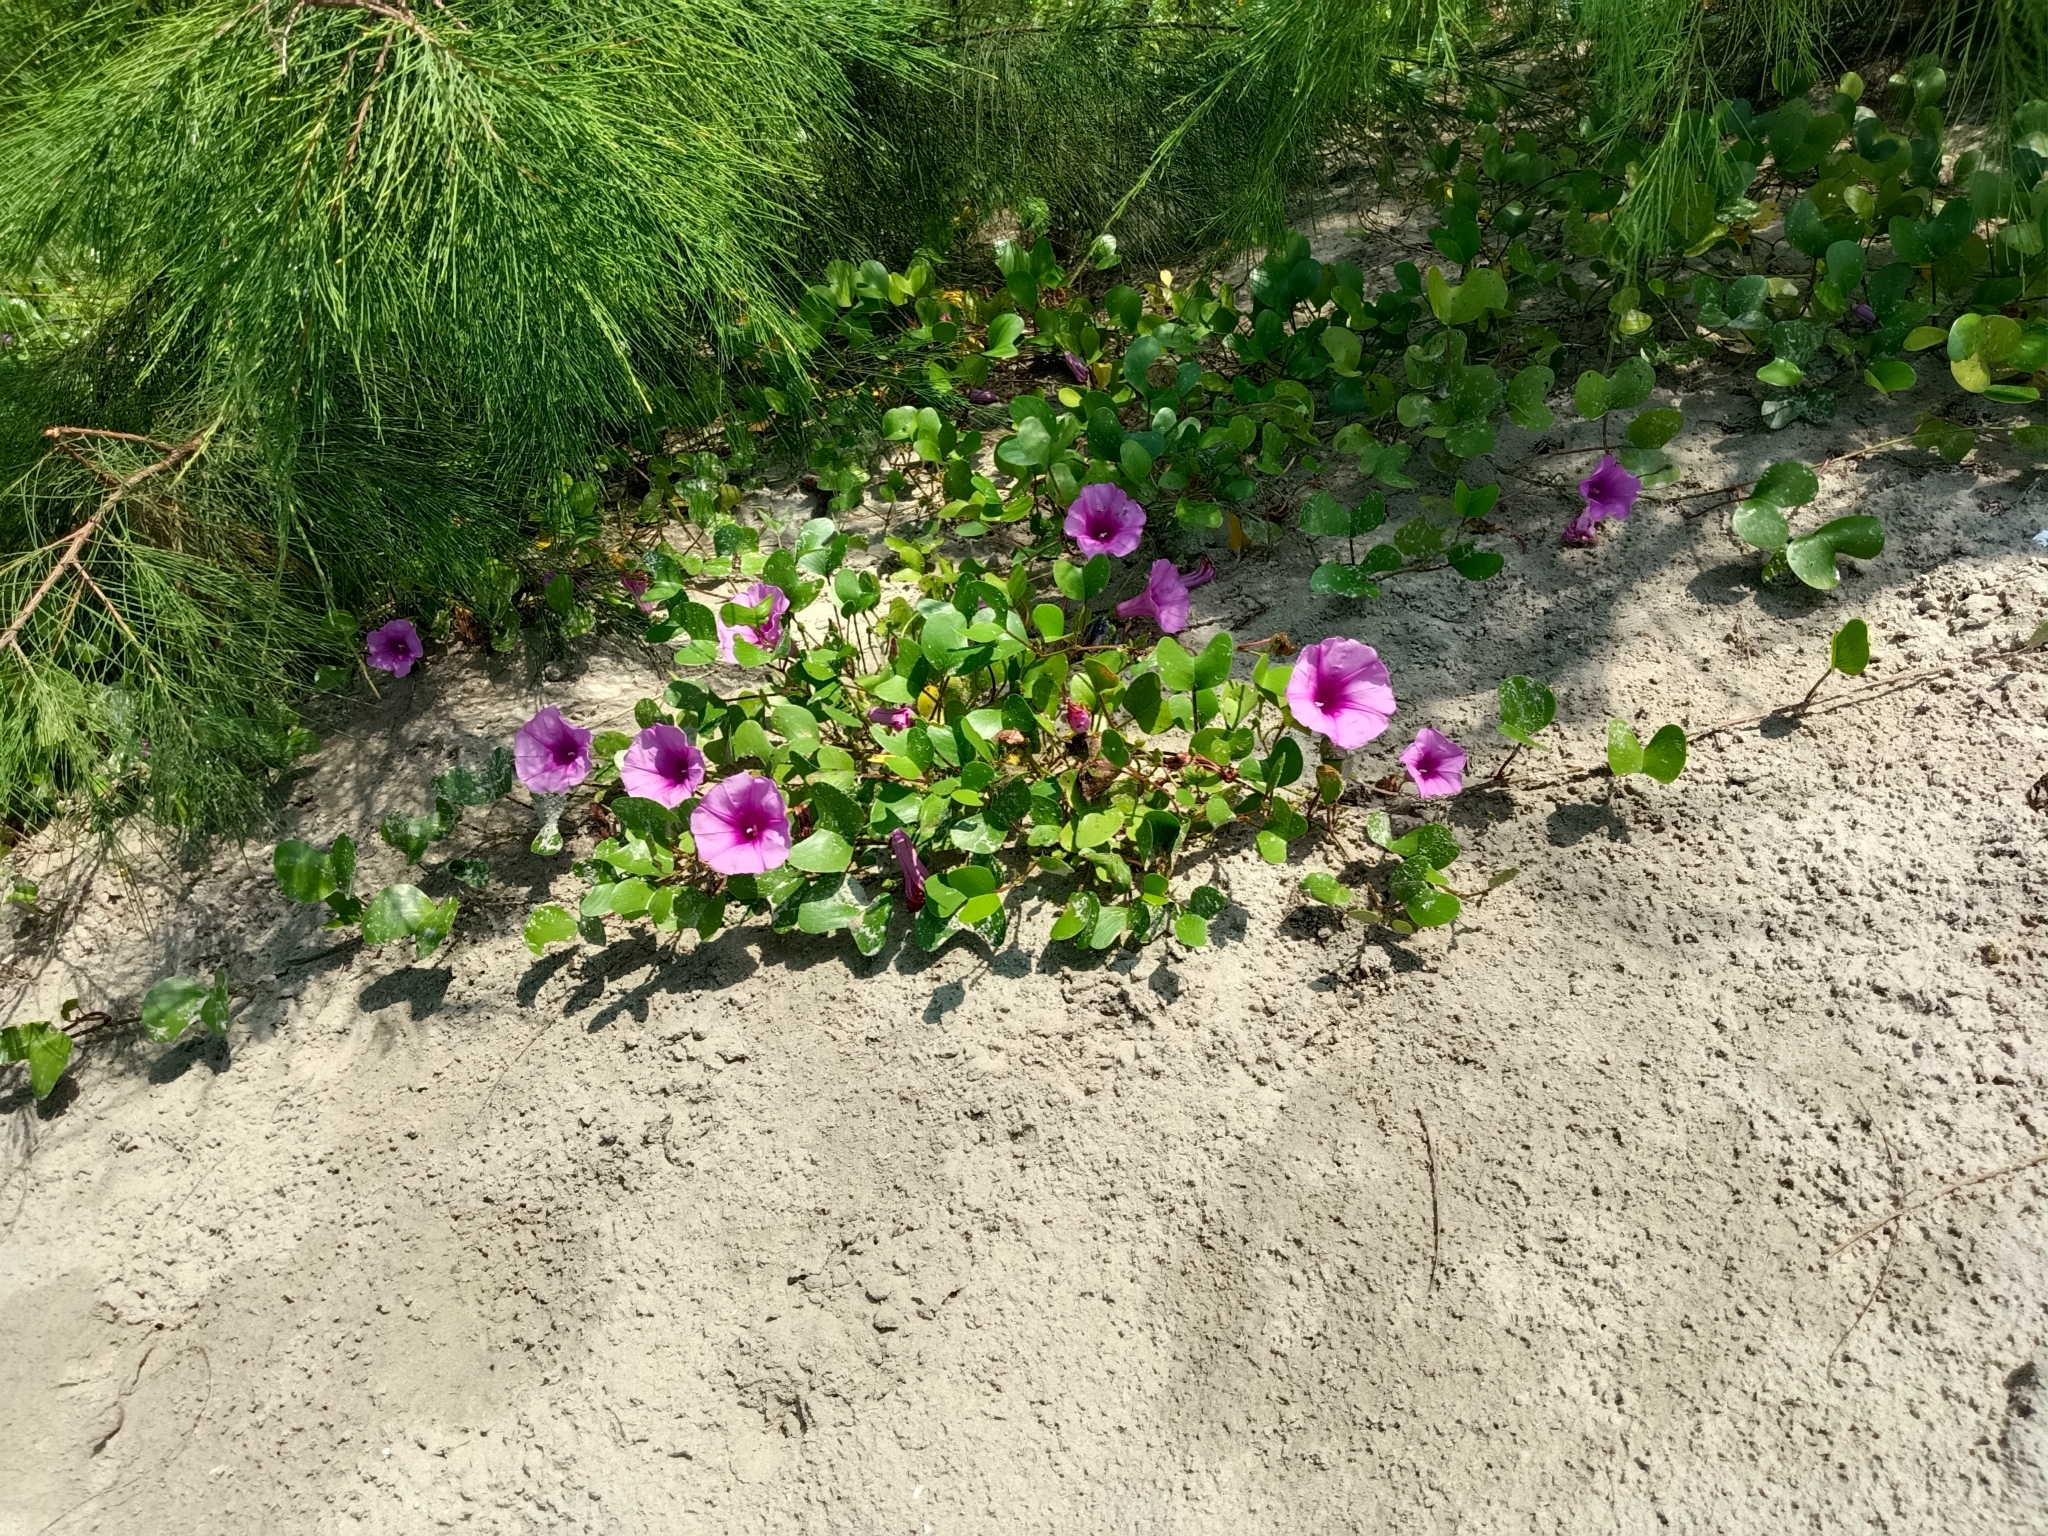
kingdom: Plantae
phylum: Tracheophyta
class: Magnoliopsida
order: Solanales
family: Convolvulaceae
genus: Ipomoea
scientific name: Ipomoea pes-caprae
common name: Beach morning glory
